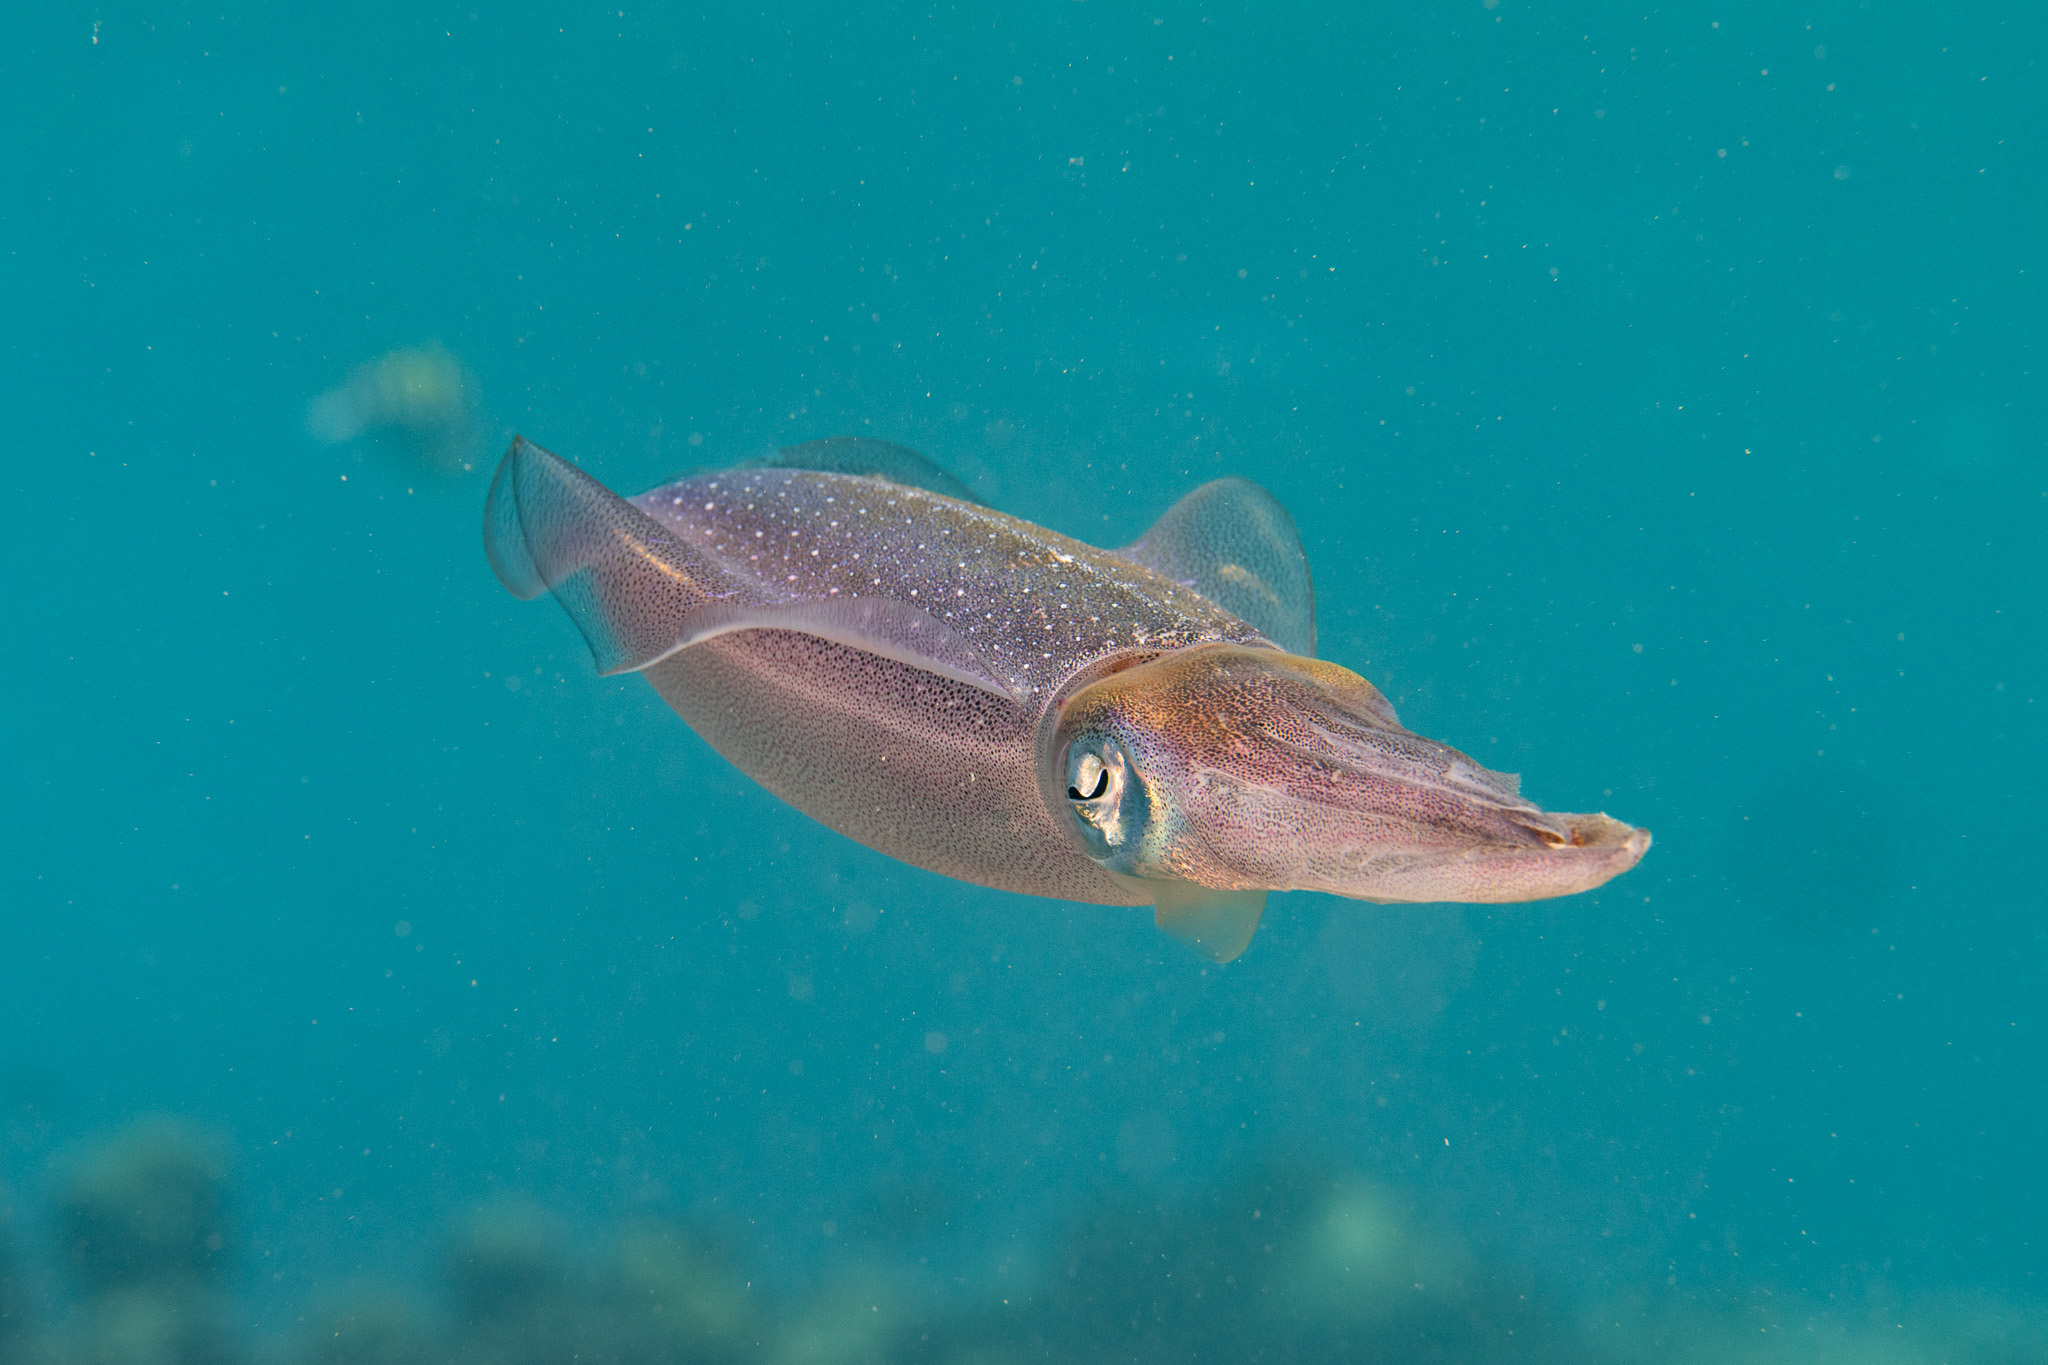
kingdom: Animalia
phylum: Mollusca
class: Cephalopoda
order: Myopsida
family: Loliginidae
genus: Sepioteuthis
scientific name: Sepioteuthis sepioidea
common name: Caribbean reef squid
